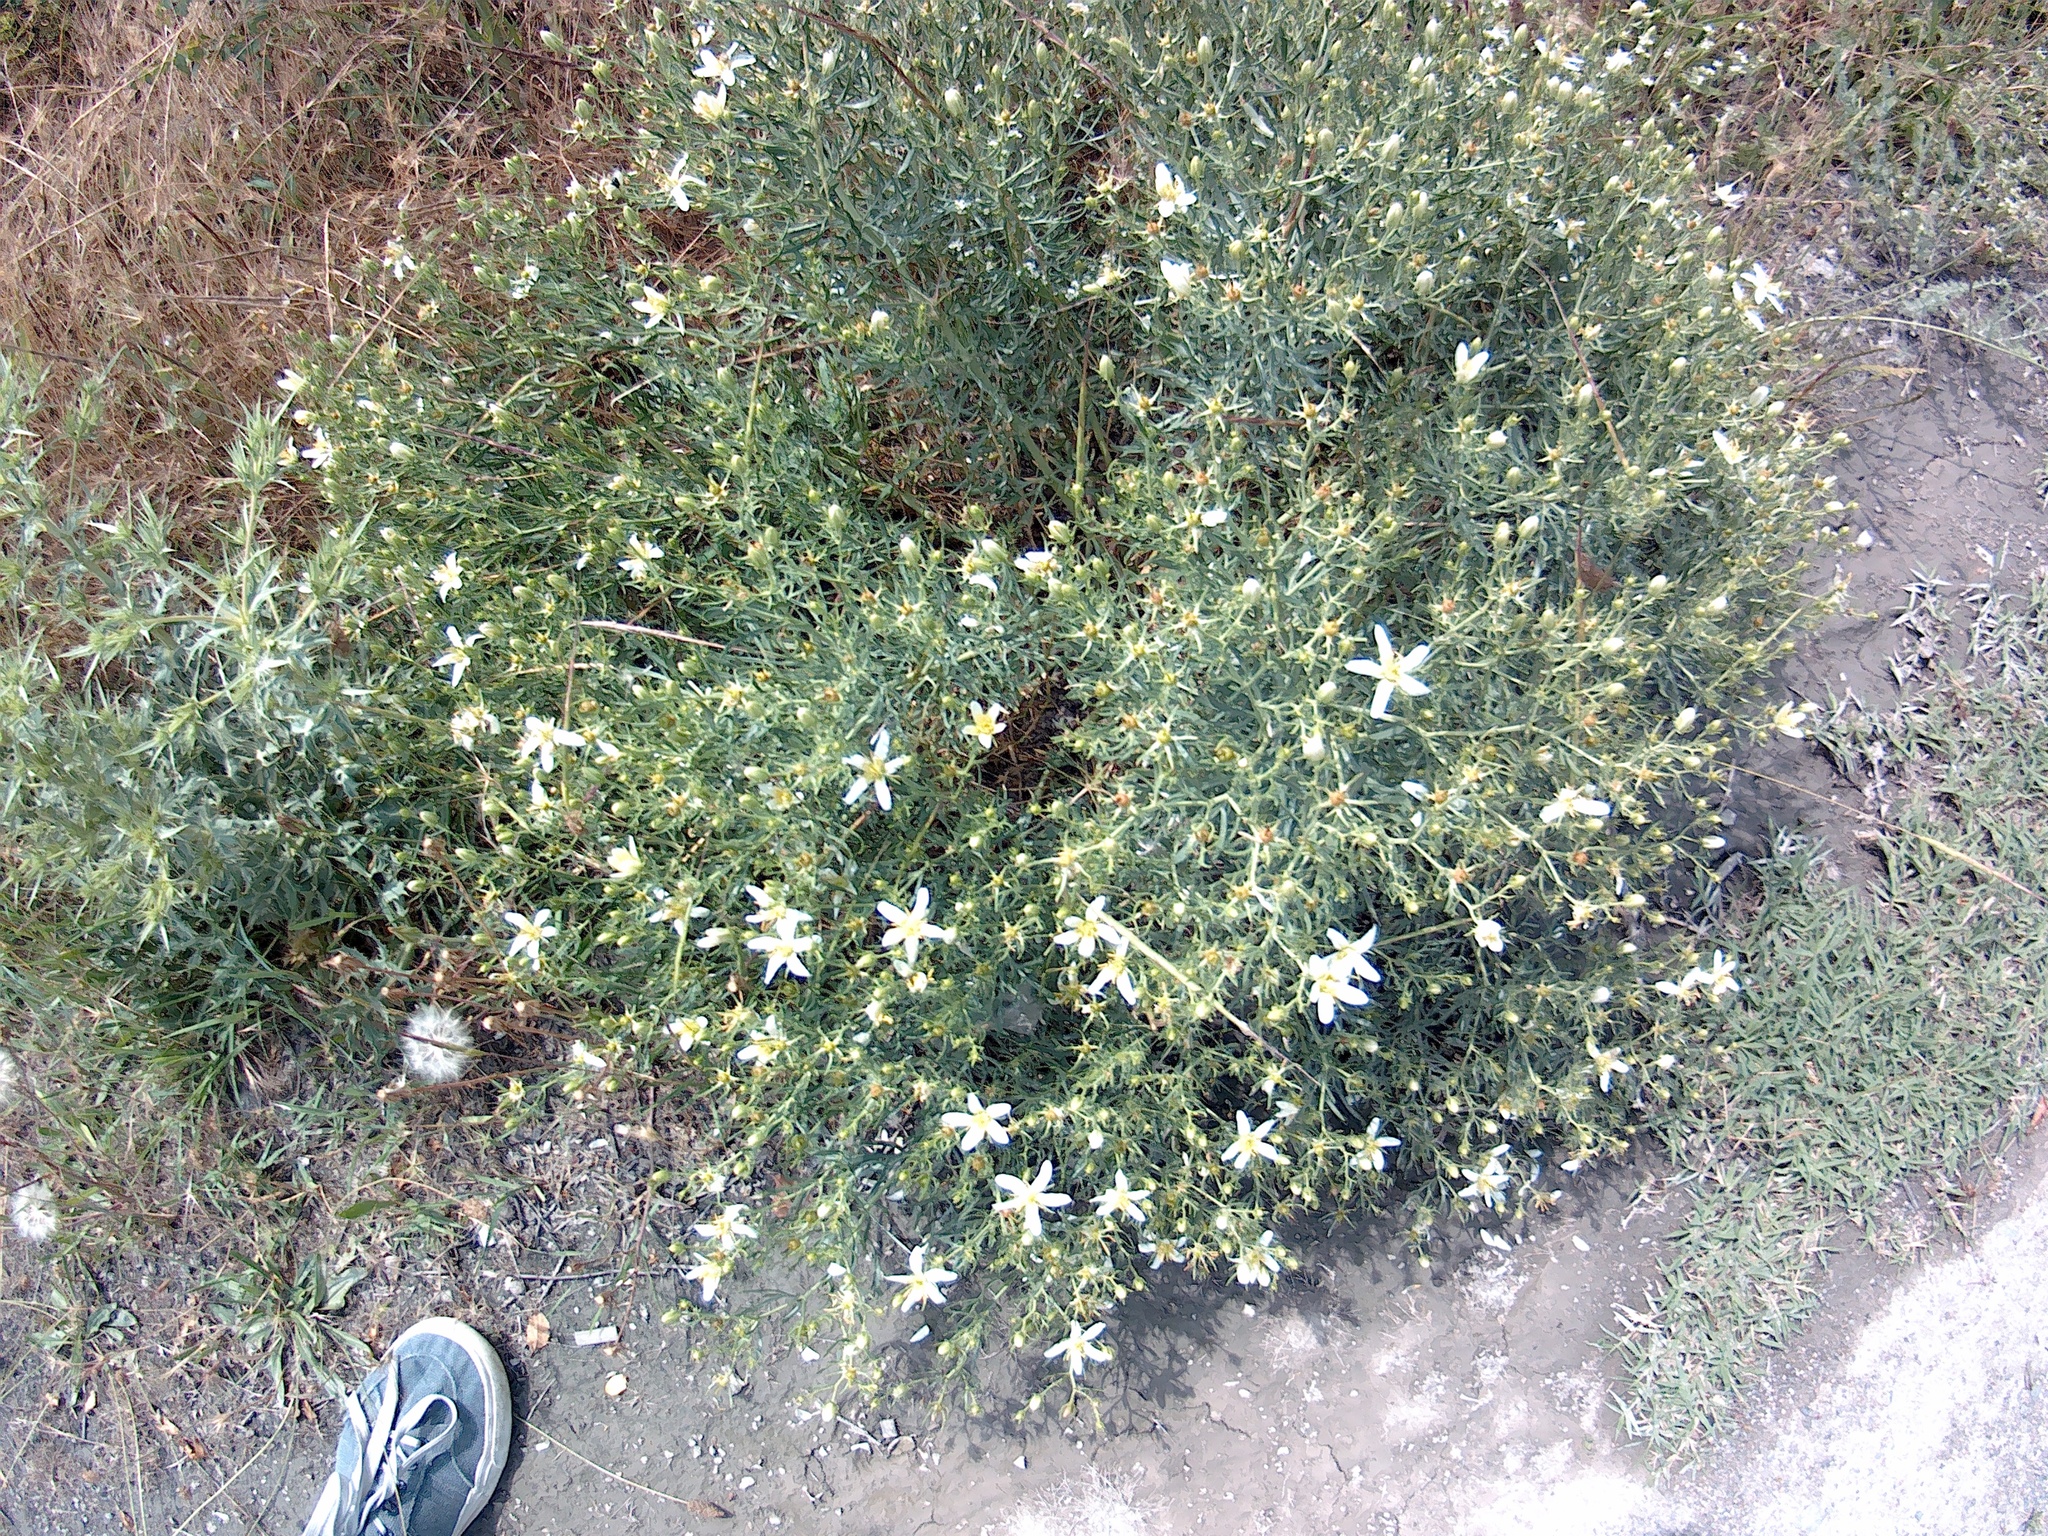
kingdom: Plantae
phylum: Tracheophyta
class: Magnoliopsida
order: Sapindales
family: Tetradiclidaceae
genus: Peganum
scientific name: Peganum harmala
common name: Harmal peganum
